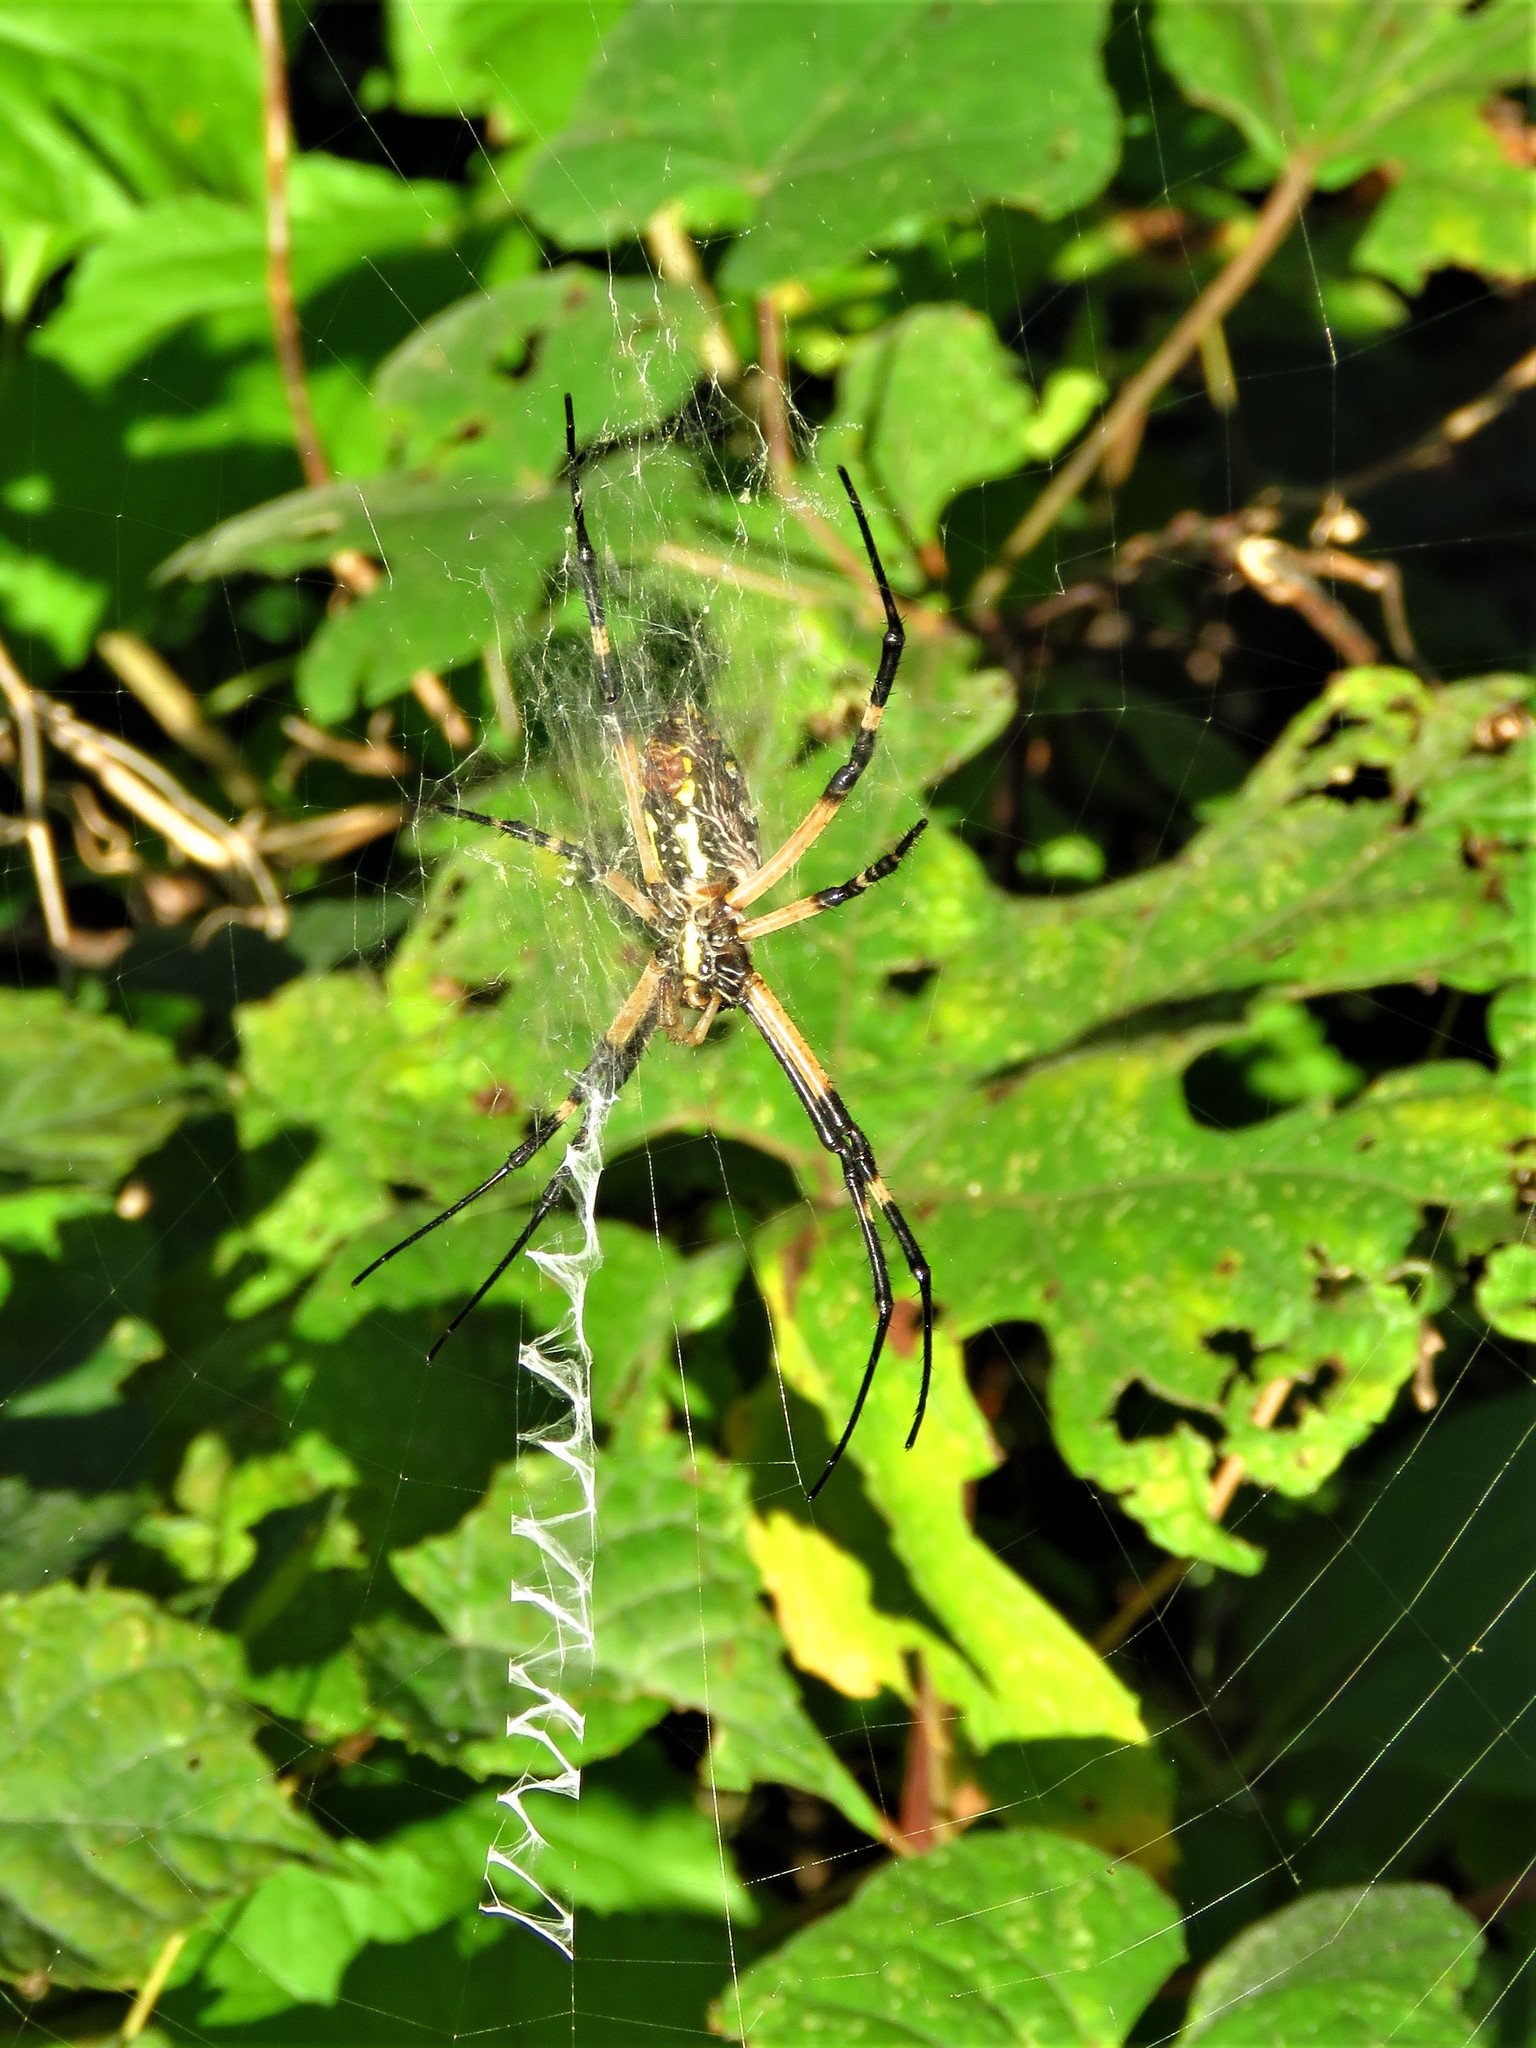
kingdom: Animalia
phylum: Arthropoda
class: Arachnida
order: Araneae
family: Araneidae
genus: Argiope
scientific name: Argiope aurantia
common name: Orb weavers
